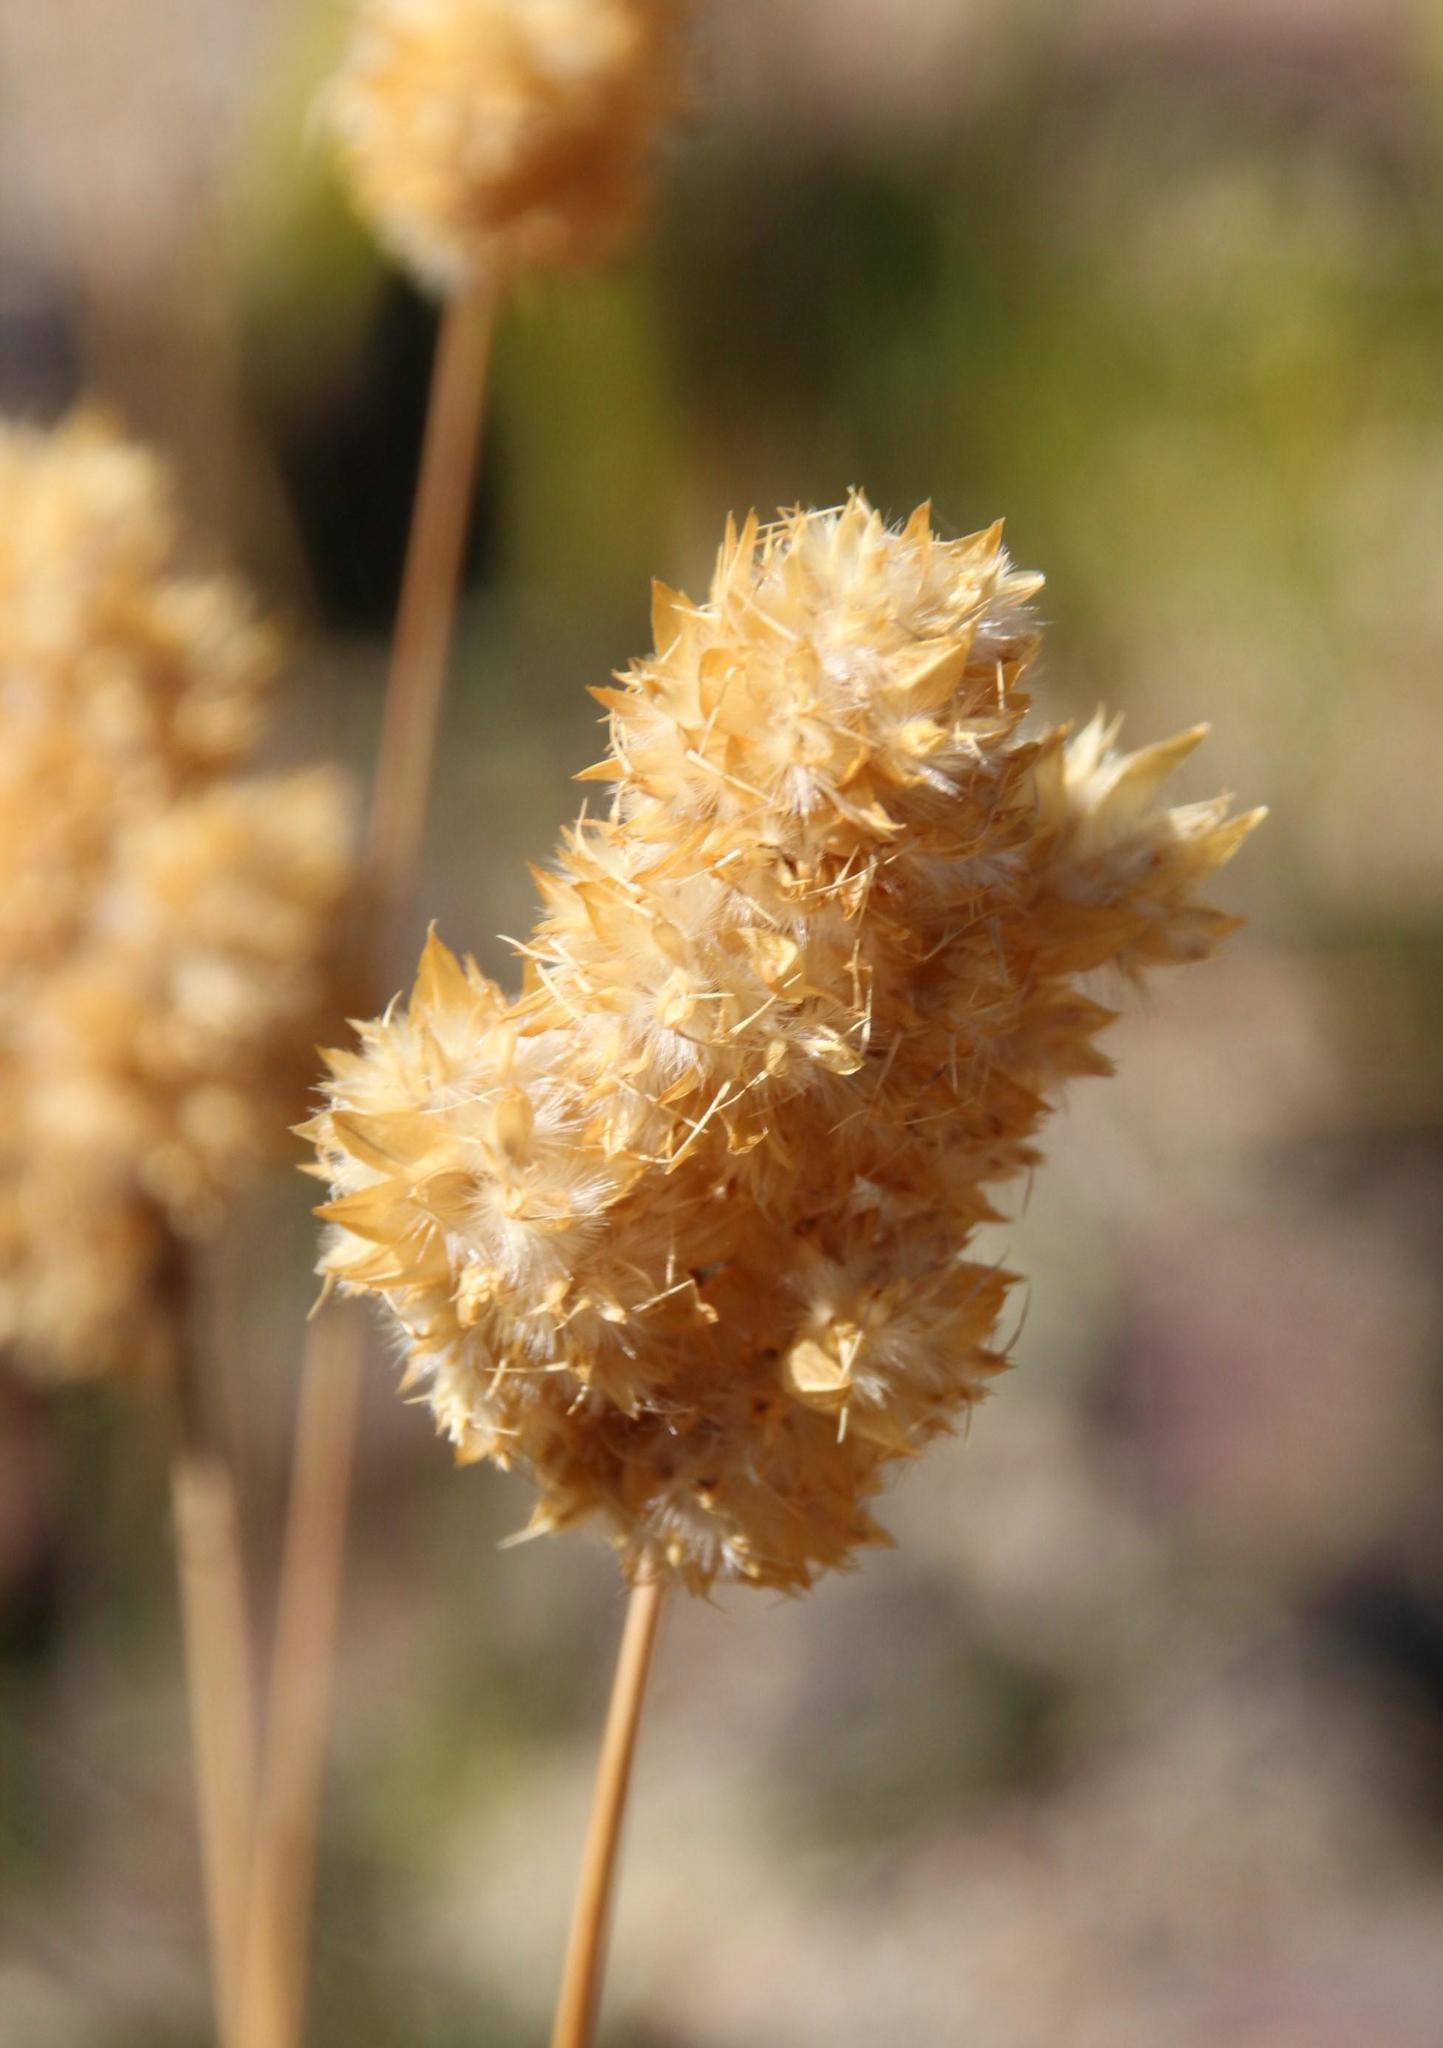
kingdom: Plantae
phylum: Tracheophyta
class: Liliopsida
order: Poales
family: Poaceae
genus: Geochloa
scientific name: Geochloa rufa
